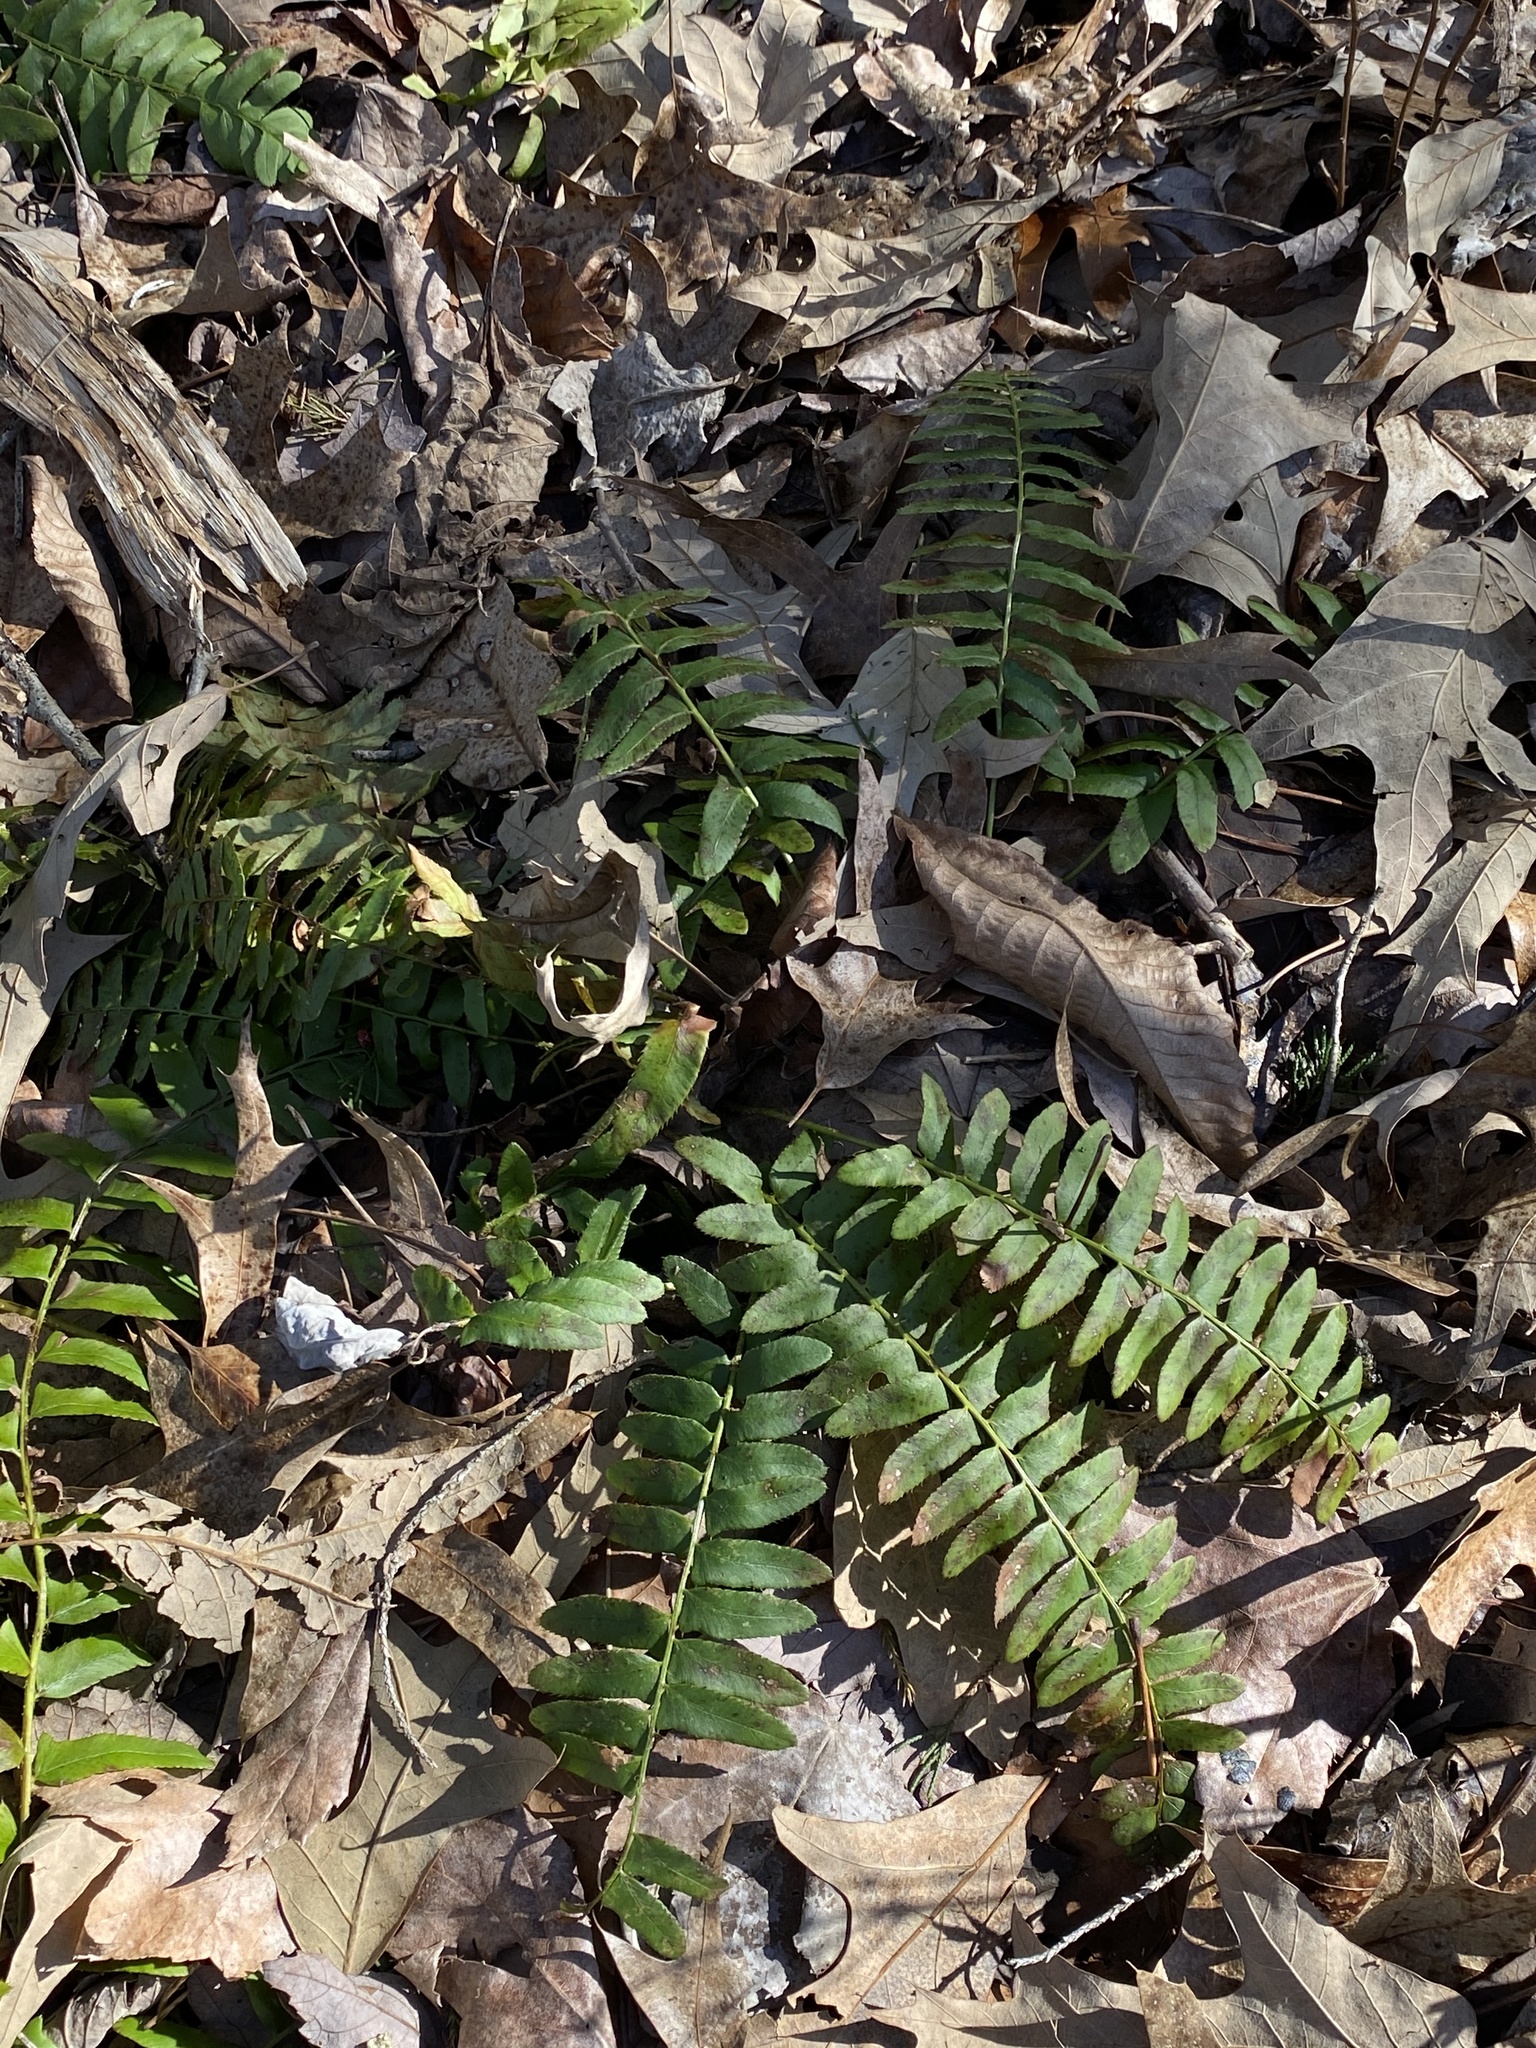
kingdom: Plantae
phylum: Tracheophyta
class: Polypodiopsida
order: Polypodiales
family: Dryopteridaceae
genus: Polystichum
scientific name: Polystichum acrostichoides
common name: Christmas fern
